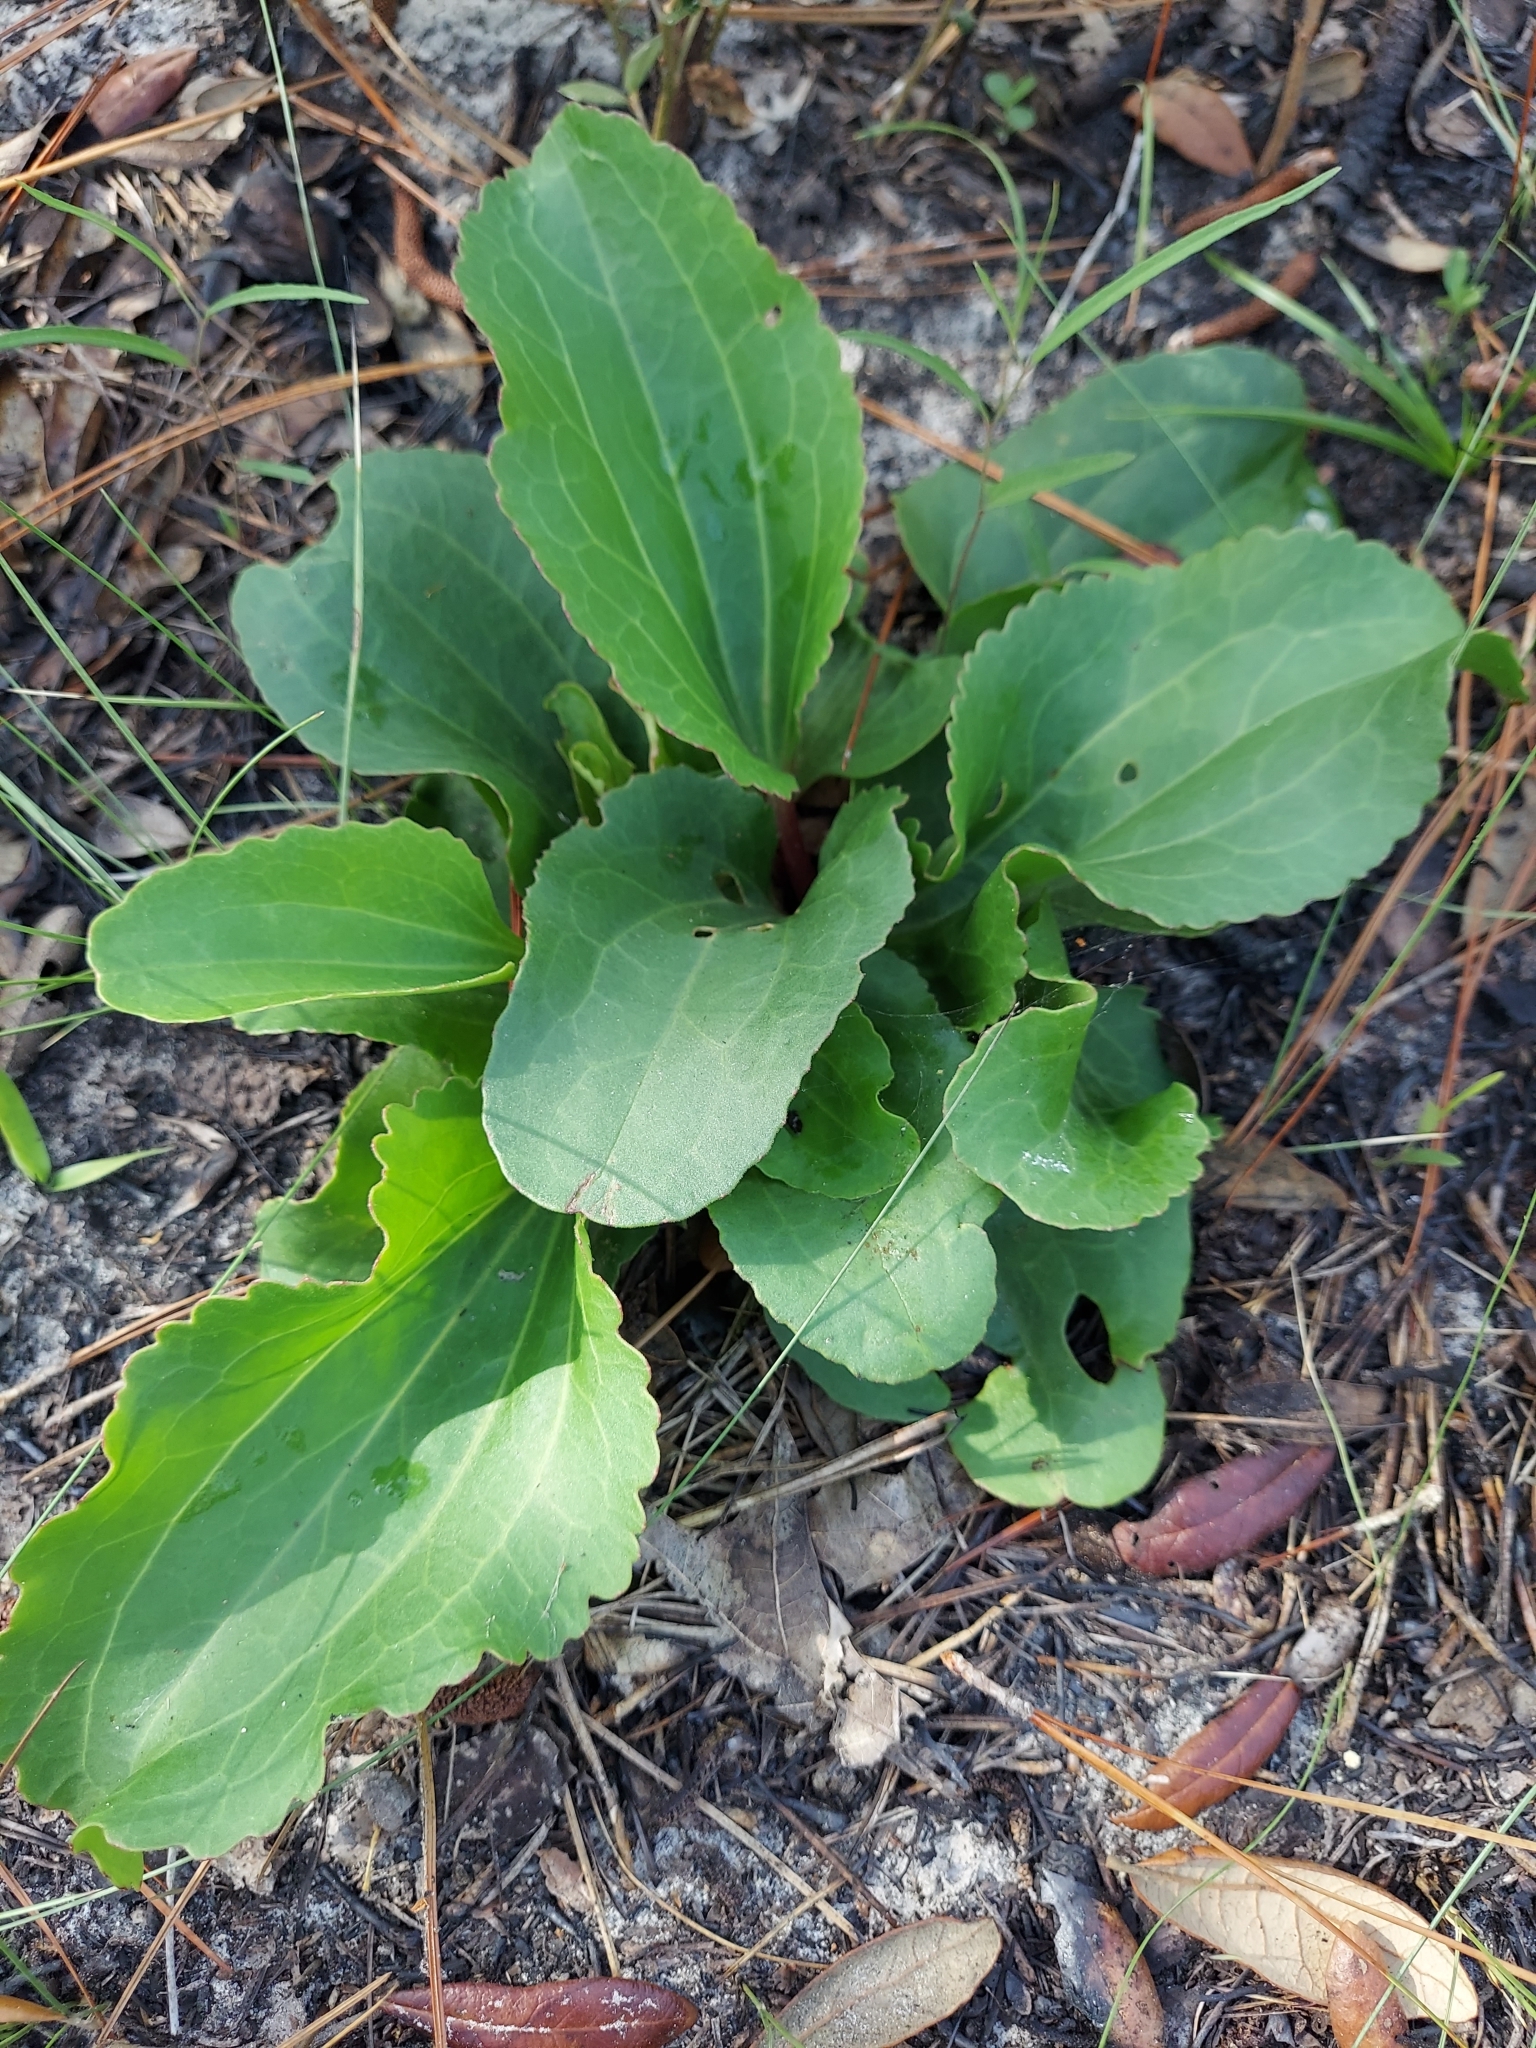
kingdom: Plantae
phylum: Tracheophyta
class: Magnoliopsida
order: Asterales
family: Asteraceae
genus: Arnoglossum
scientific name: Arnoglossum floridanum
